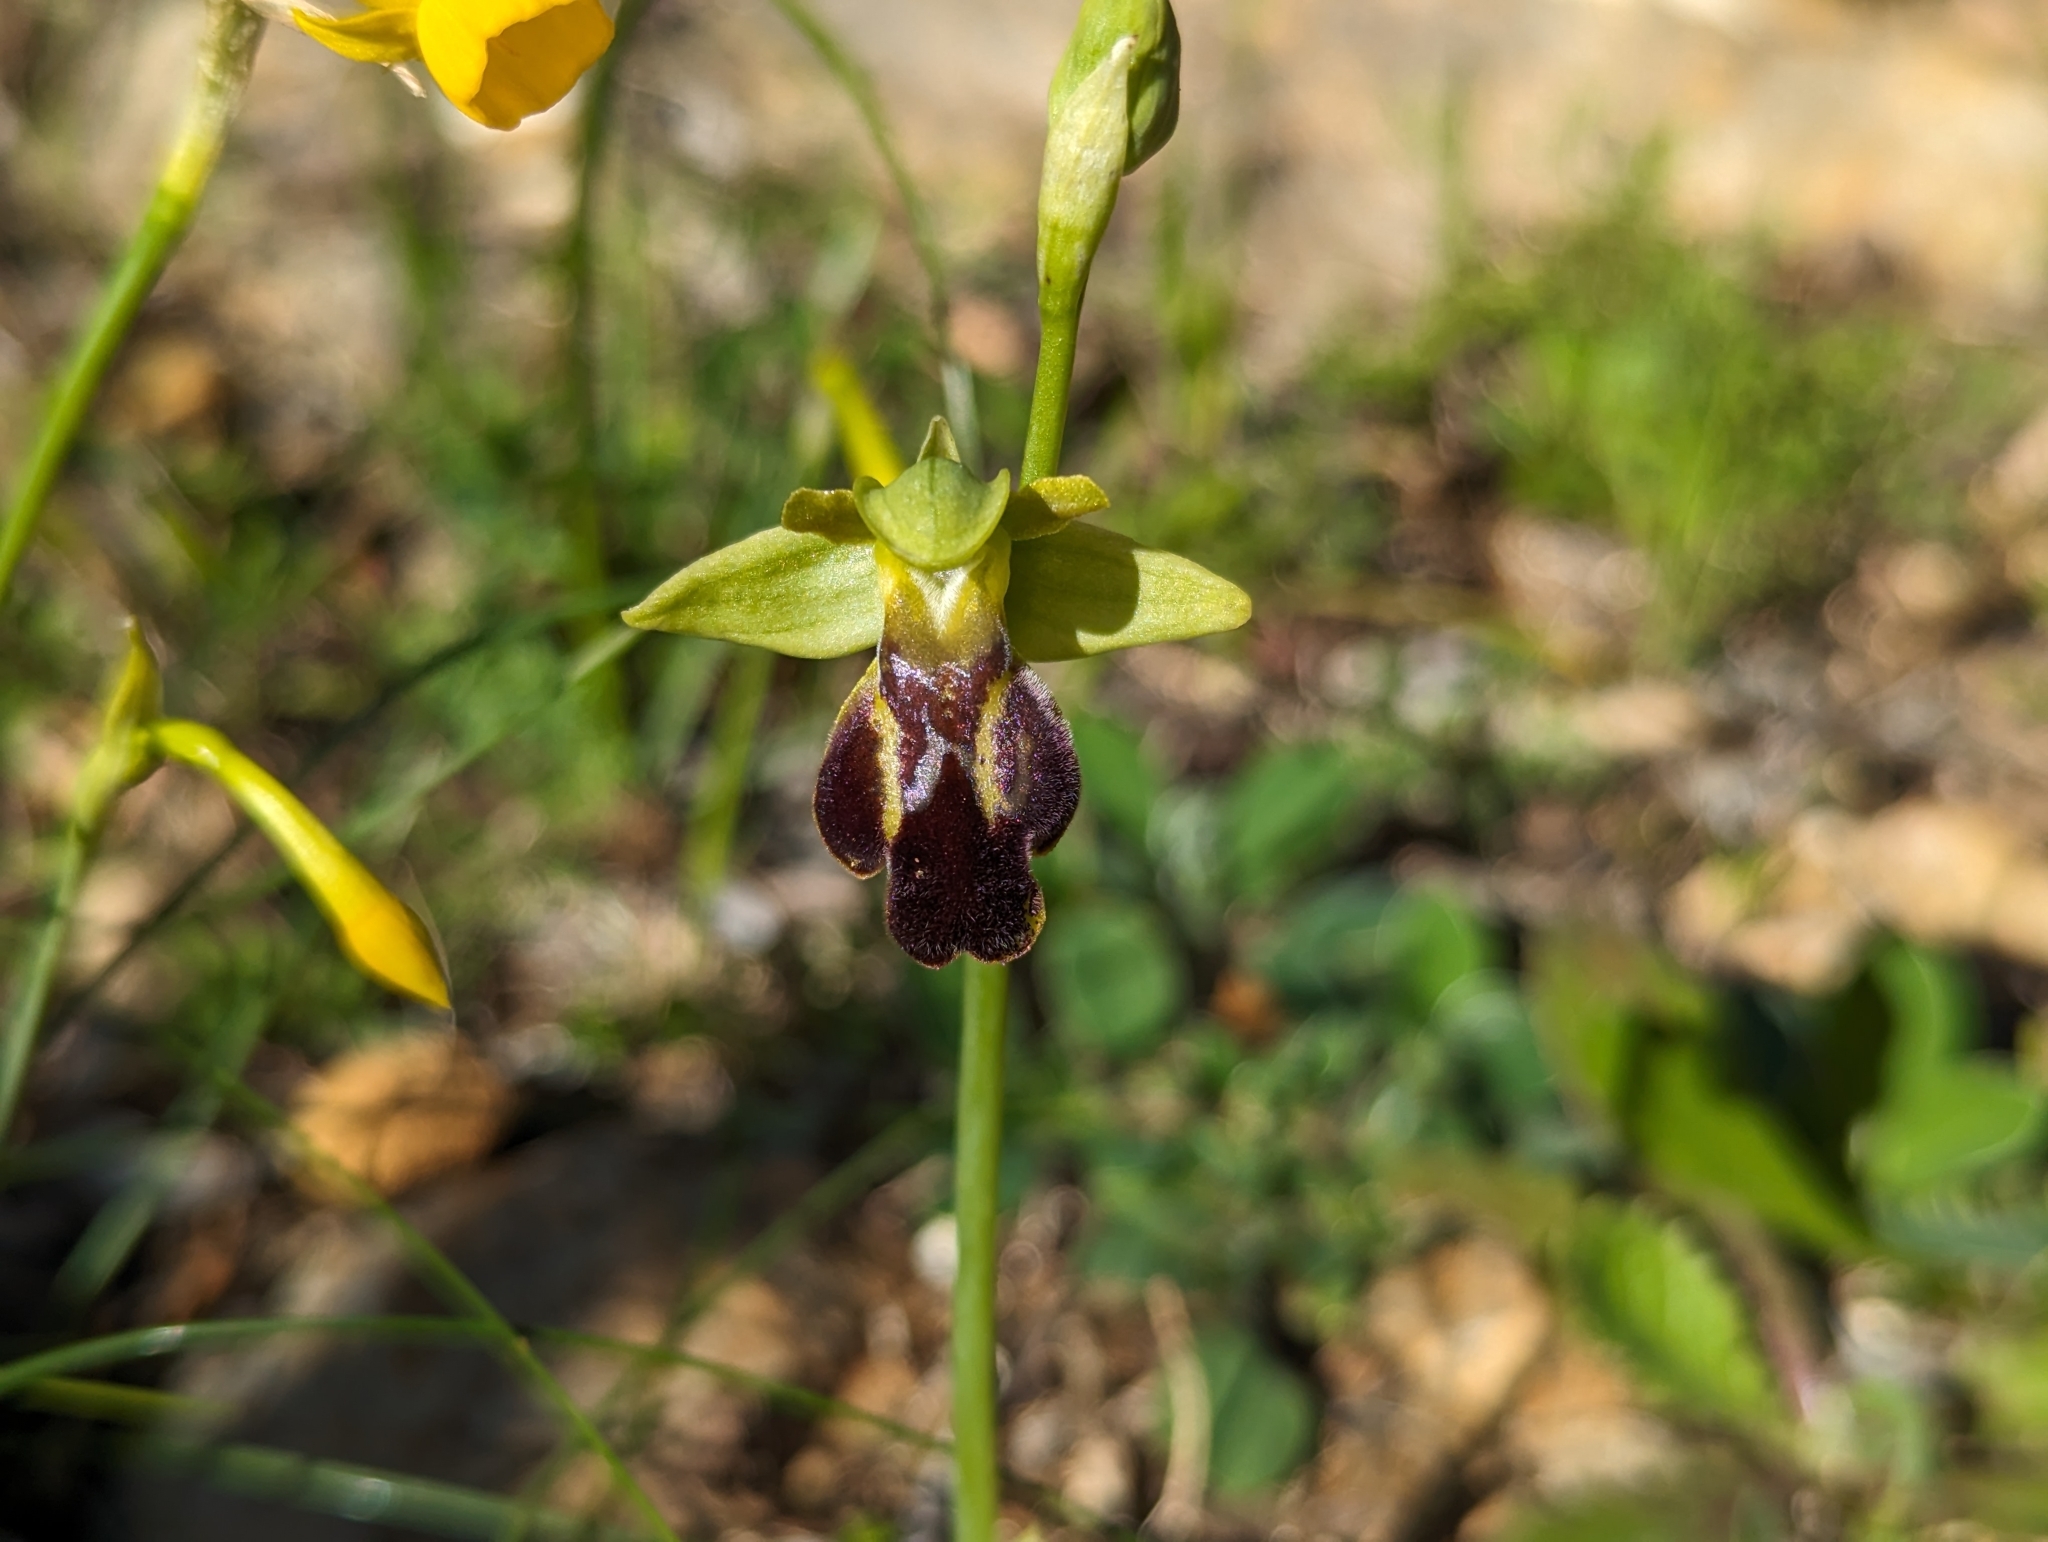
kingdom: Plantae
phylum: Tracheophyta
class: Liliopsida
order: Asparagales
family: Orchidaceae
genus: Ophrys
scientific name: Ophrys fusca
